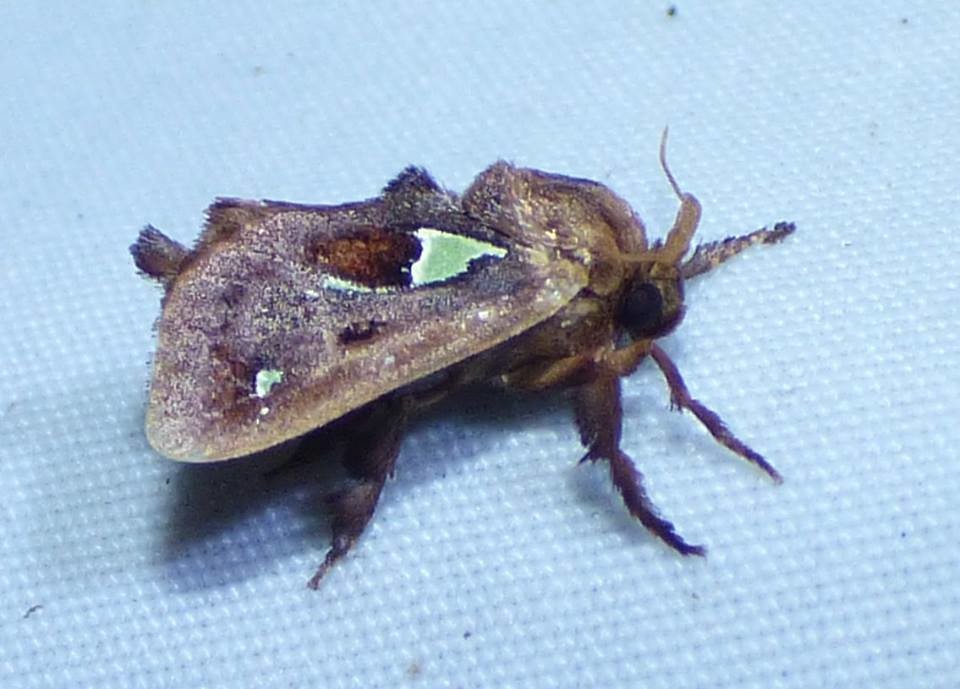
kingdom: Animalia
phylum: Arthropoda
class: Insecta
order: Lepidoptera
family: Limacodidae
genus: Euclea
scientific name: Euclea delphinii
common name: Spiny oak-slug moth
